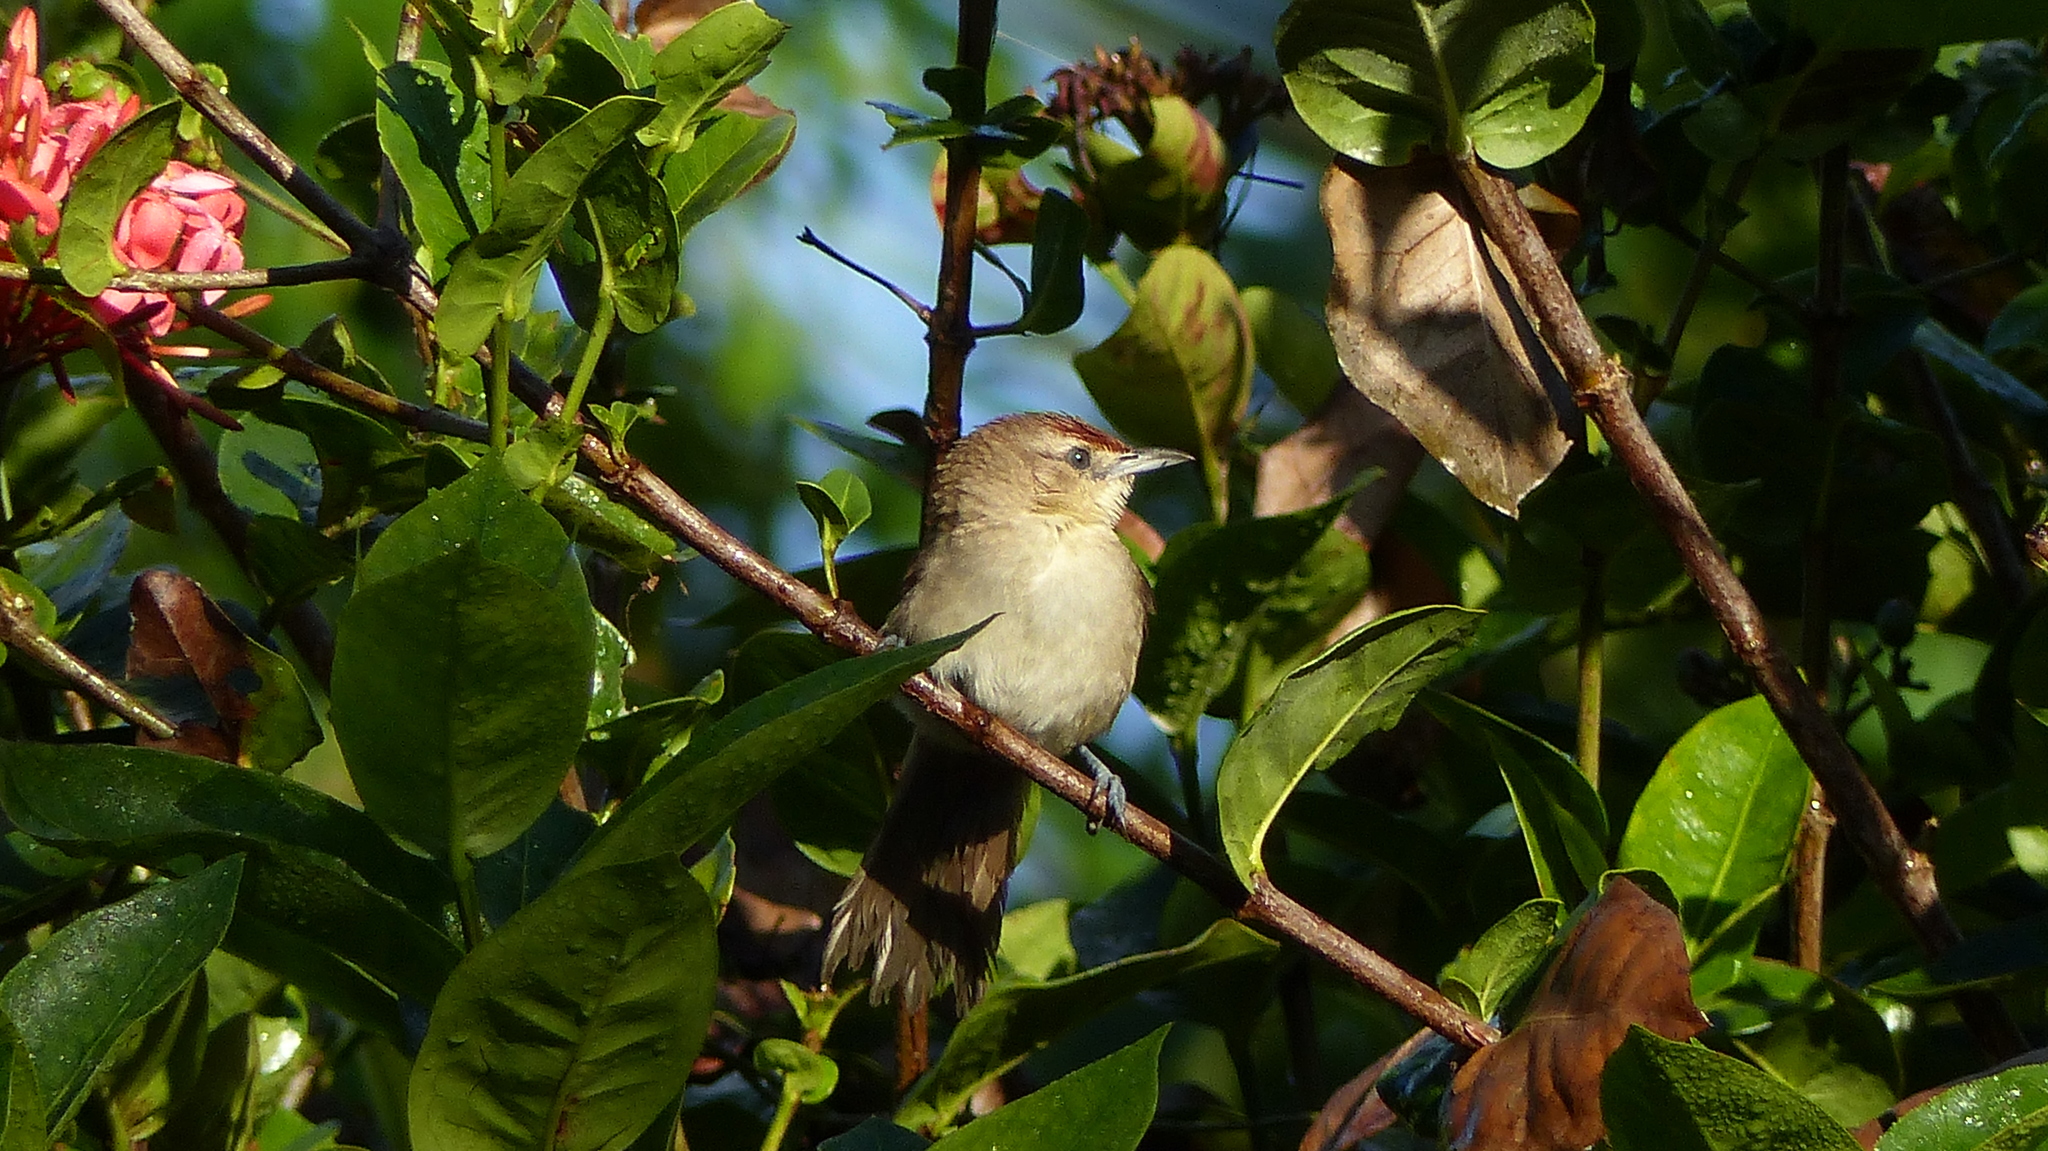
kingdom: Animalia
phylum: Chordata
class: Aves
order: Passeriformes
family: Furnariidae
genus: Phacellodomus
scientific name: Phacellodomus rufifrons
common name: Rufous-fronted thornbird
